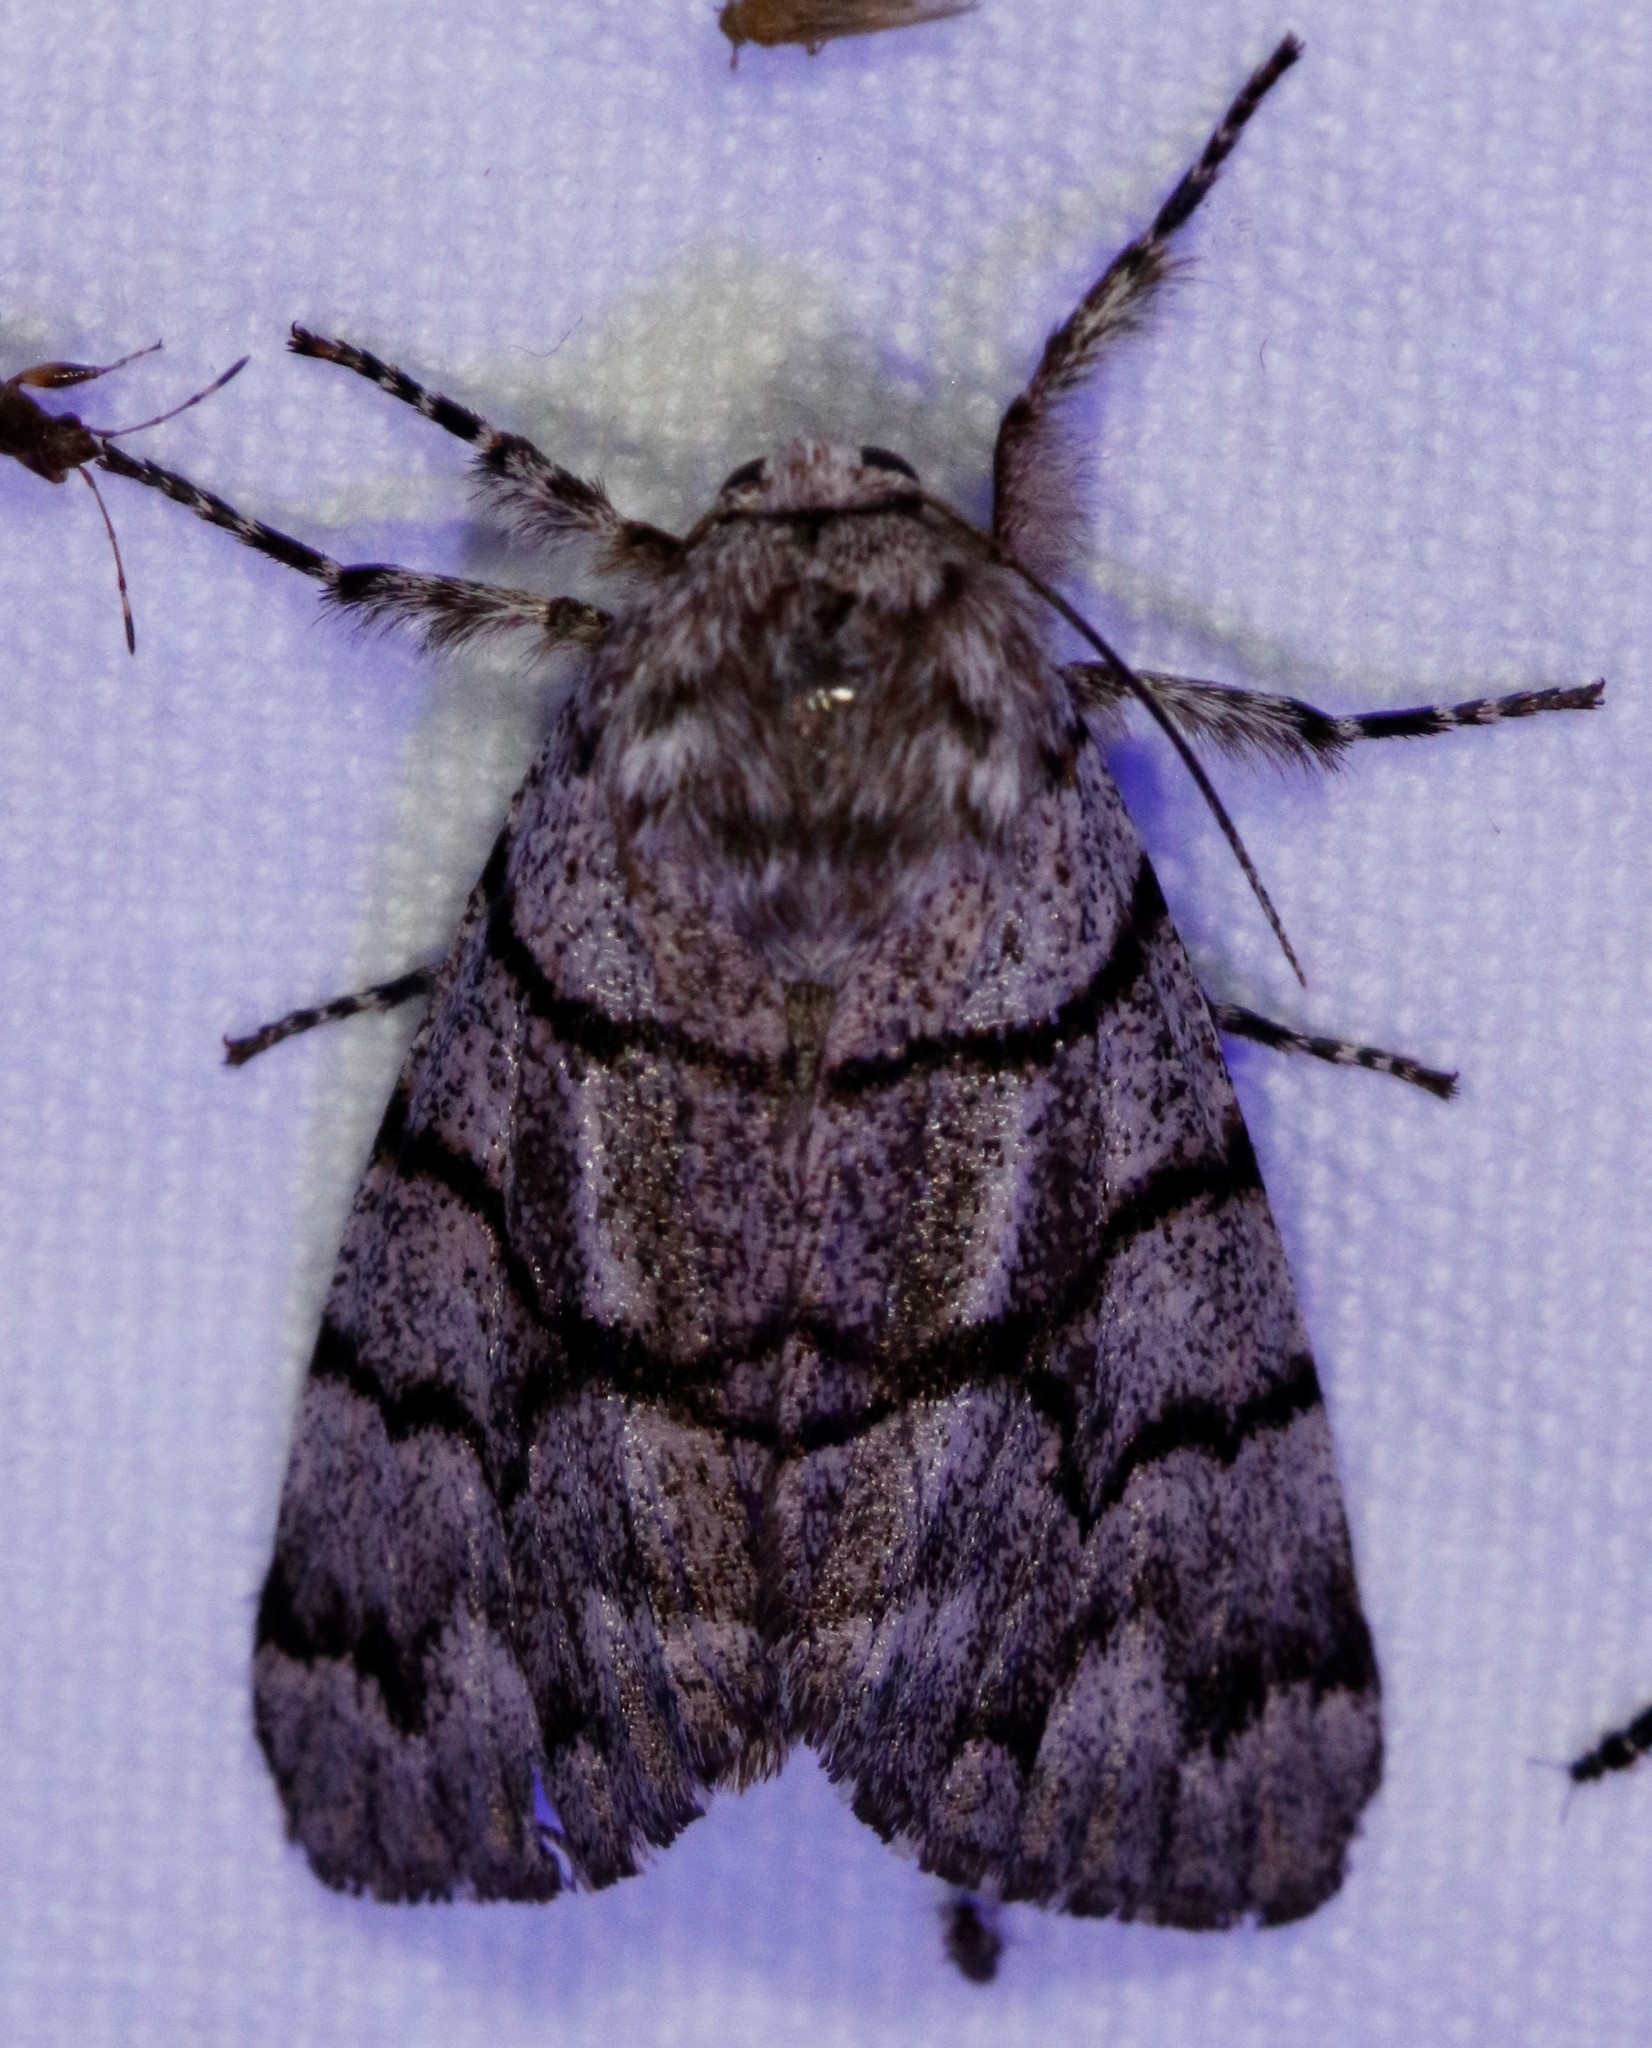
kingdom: Animalia
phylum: Arthropoda
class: Insecta
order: Lepidoptera
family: Noctuidae
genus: Panthea
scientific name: Panthea furcilla
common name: Eastern panthea moth
